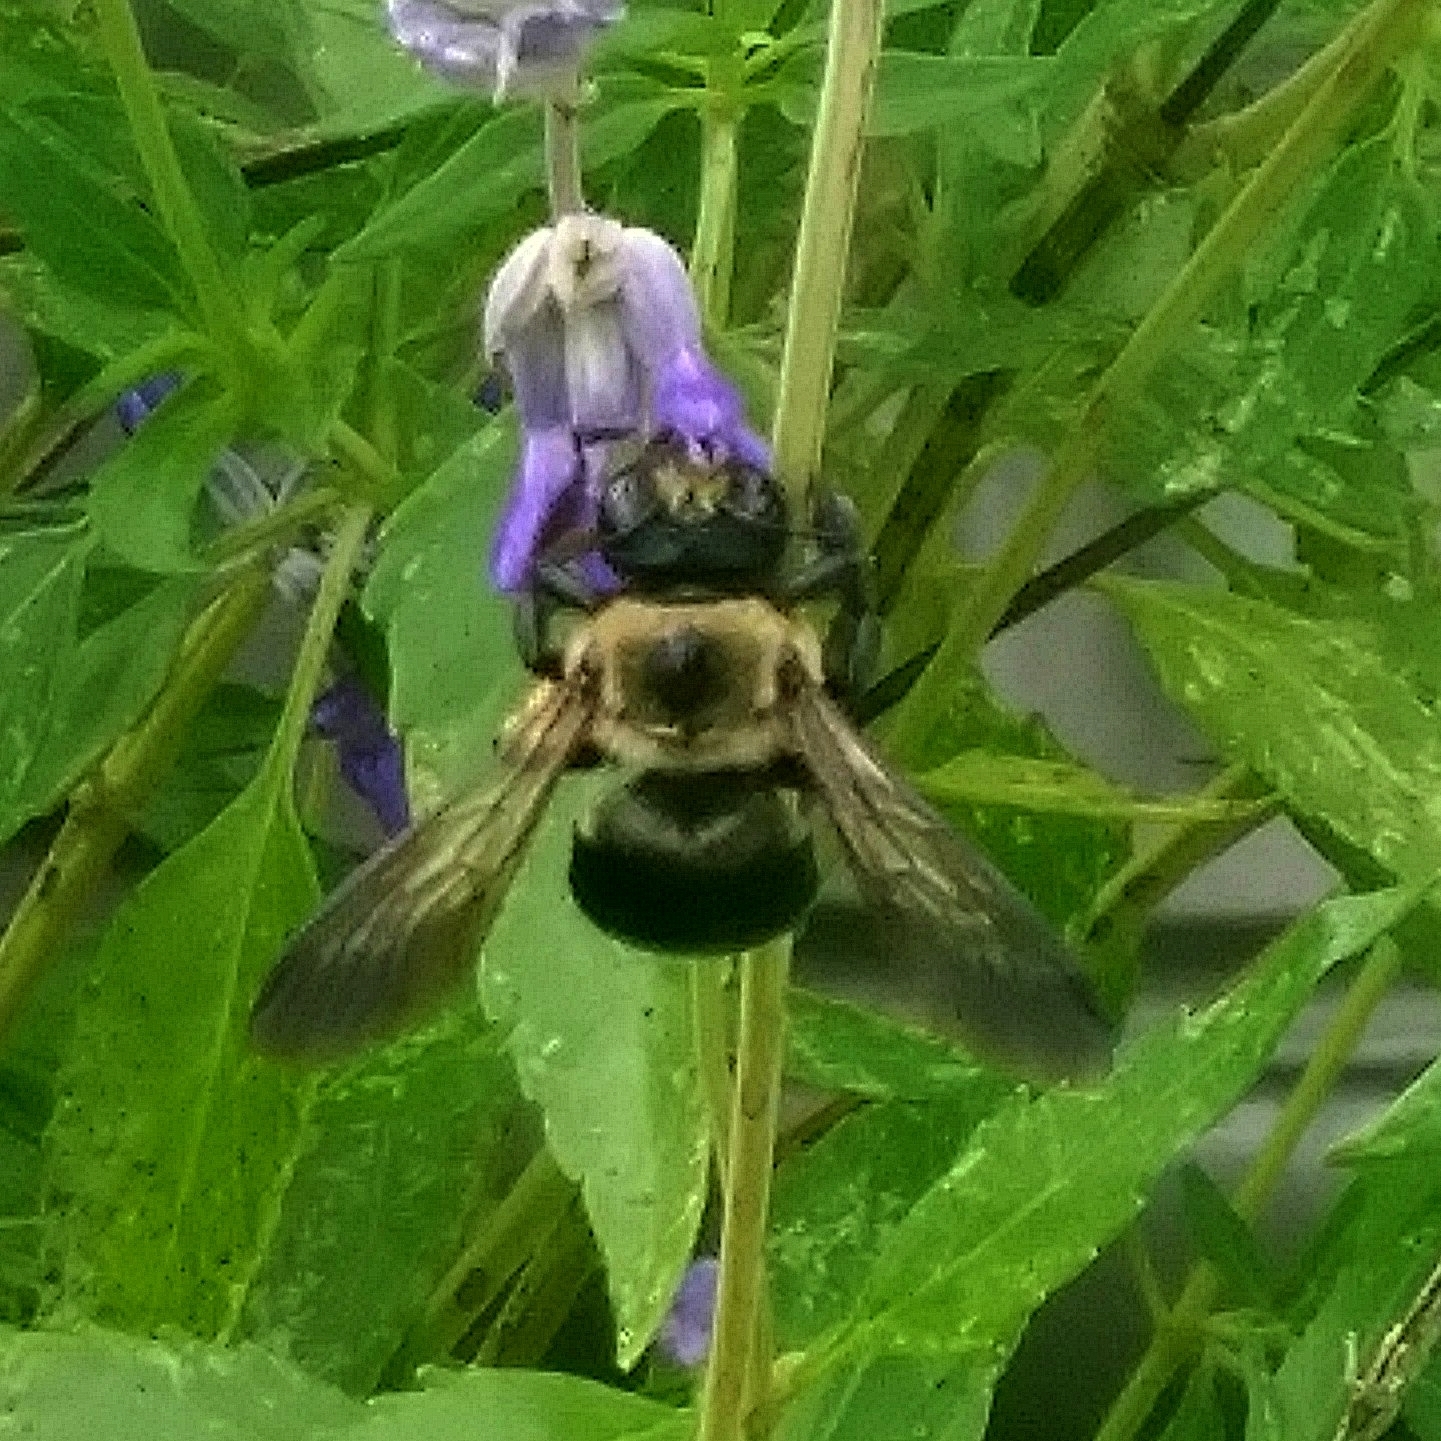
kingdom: Animalia
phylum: Arthropoda
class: Insecta
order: Hymenoptera
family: Apidae
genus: Xylocopa
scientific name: Xylocopa virginica
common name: Carpenter bee
